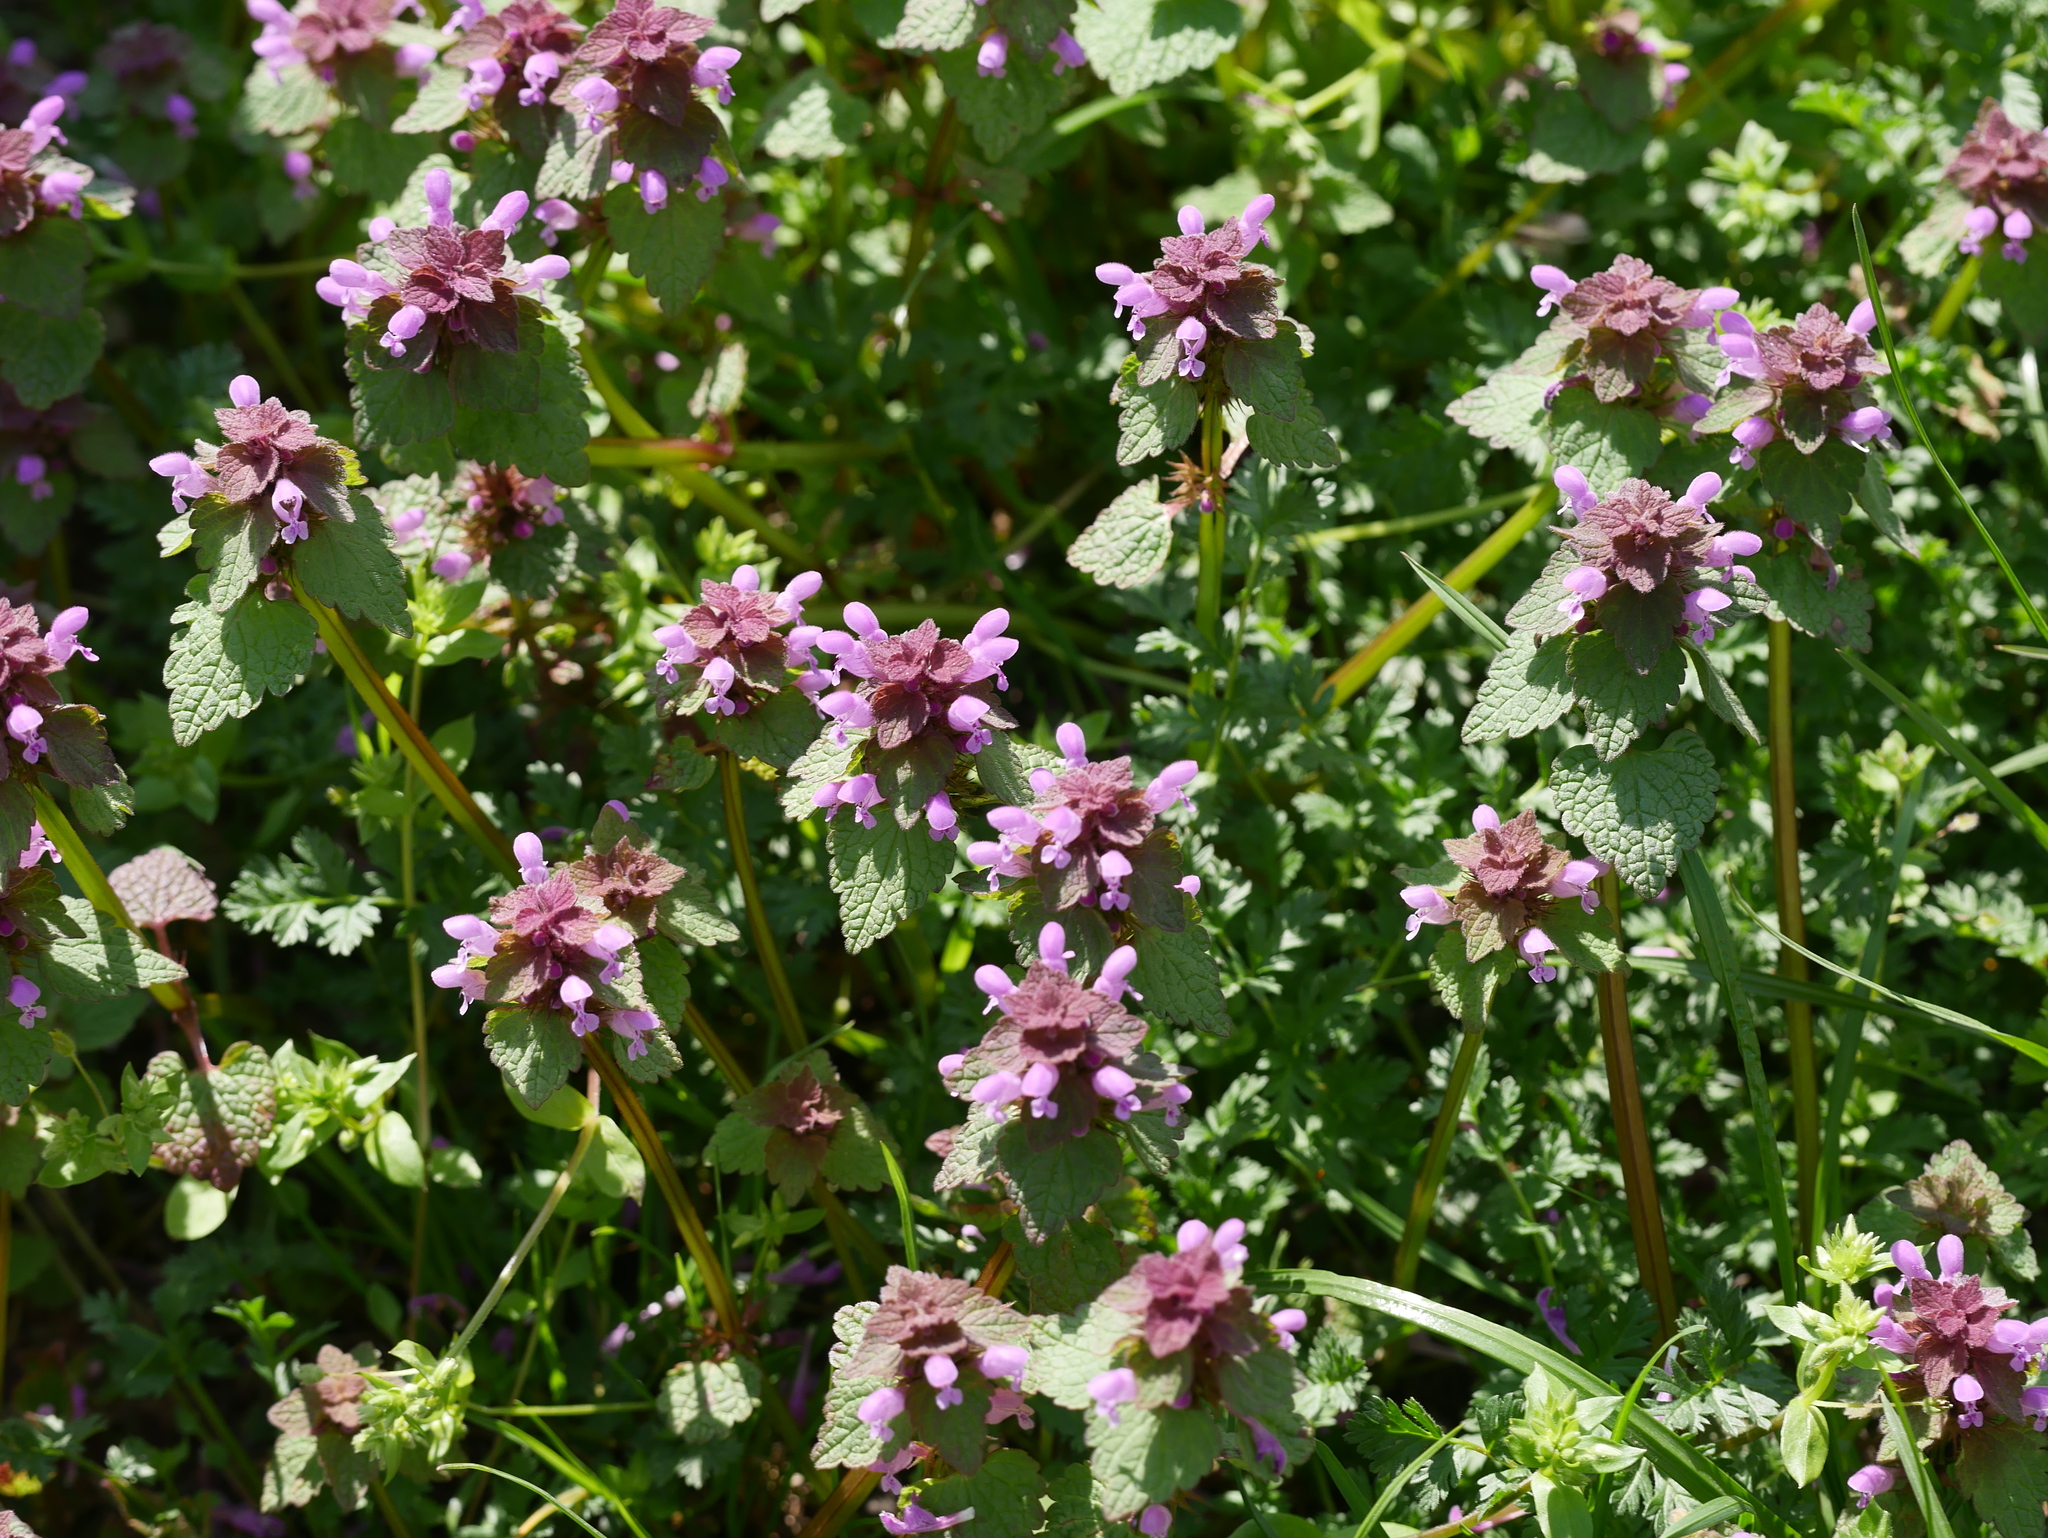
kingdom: Plantae
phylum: Tracheophyta
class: Magnoliopsida
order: Lamiales
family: Lamiaceae
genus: Lamium
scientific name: Lamium purpureum
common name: Red dead-nettle
